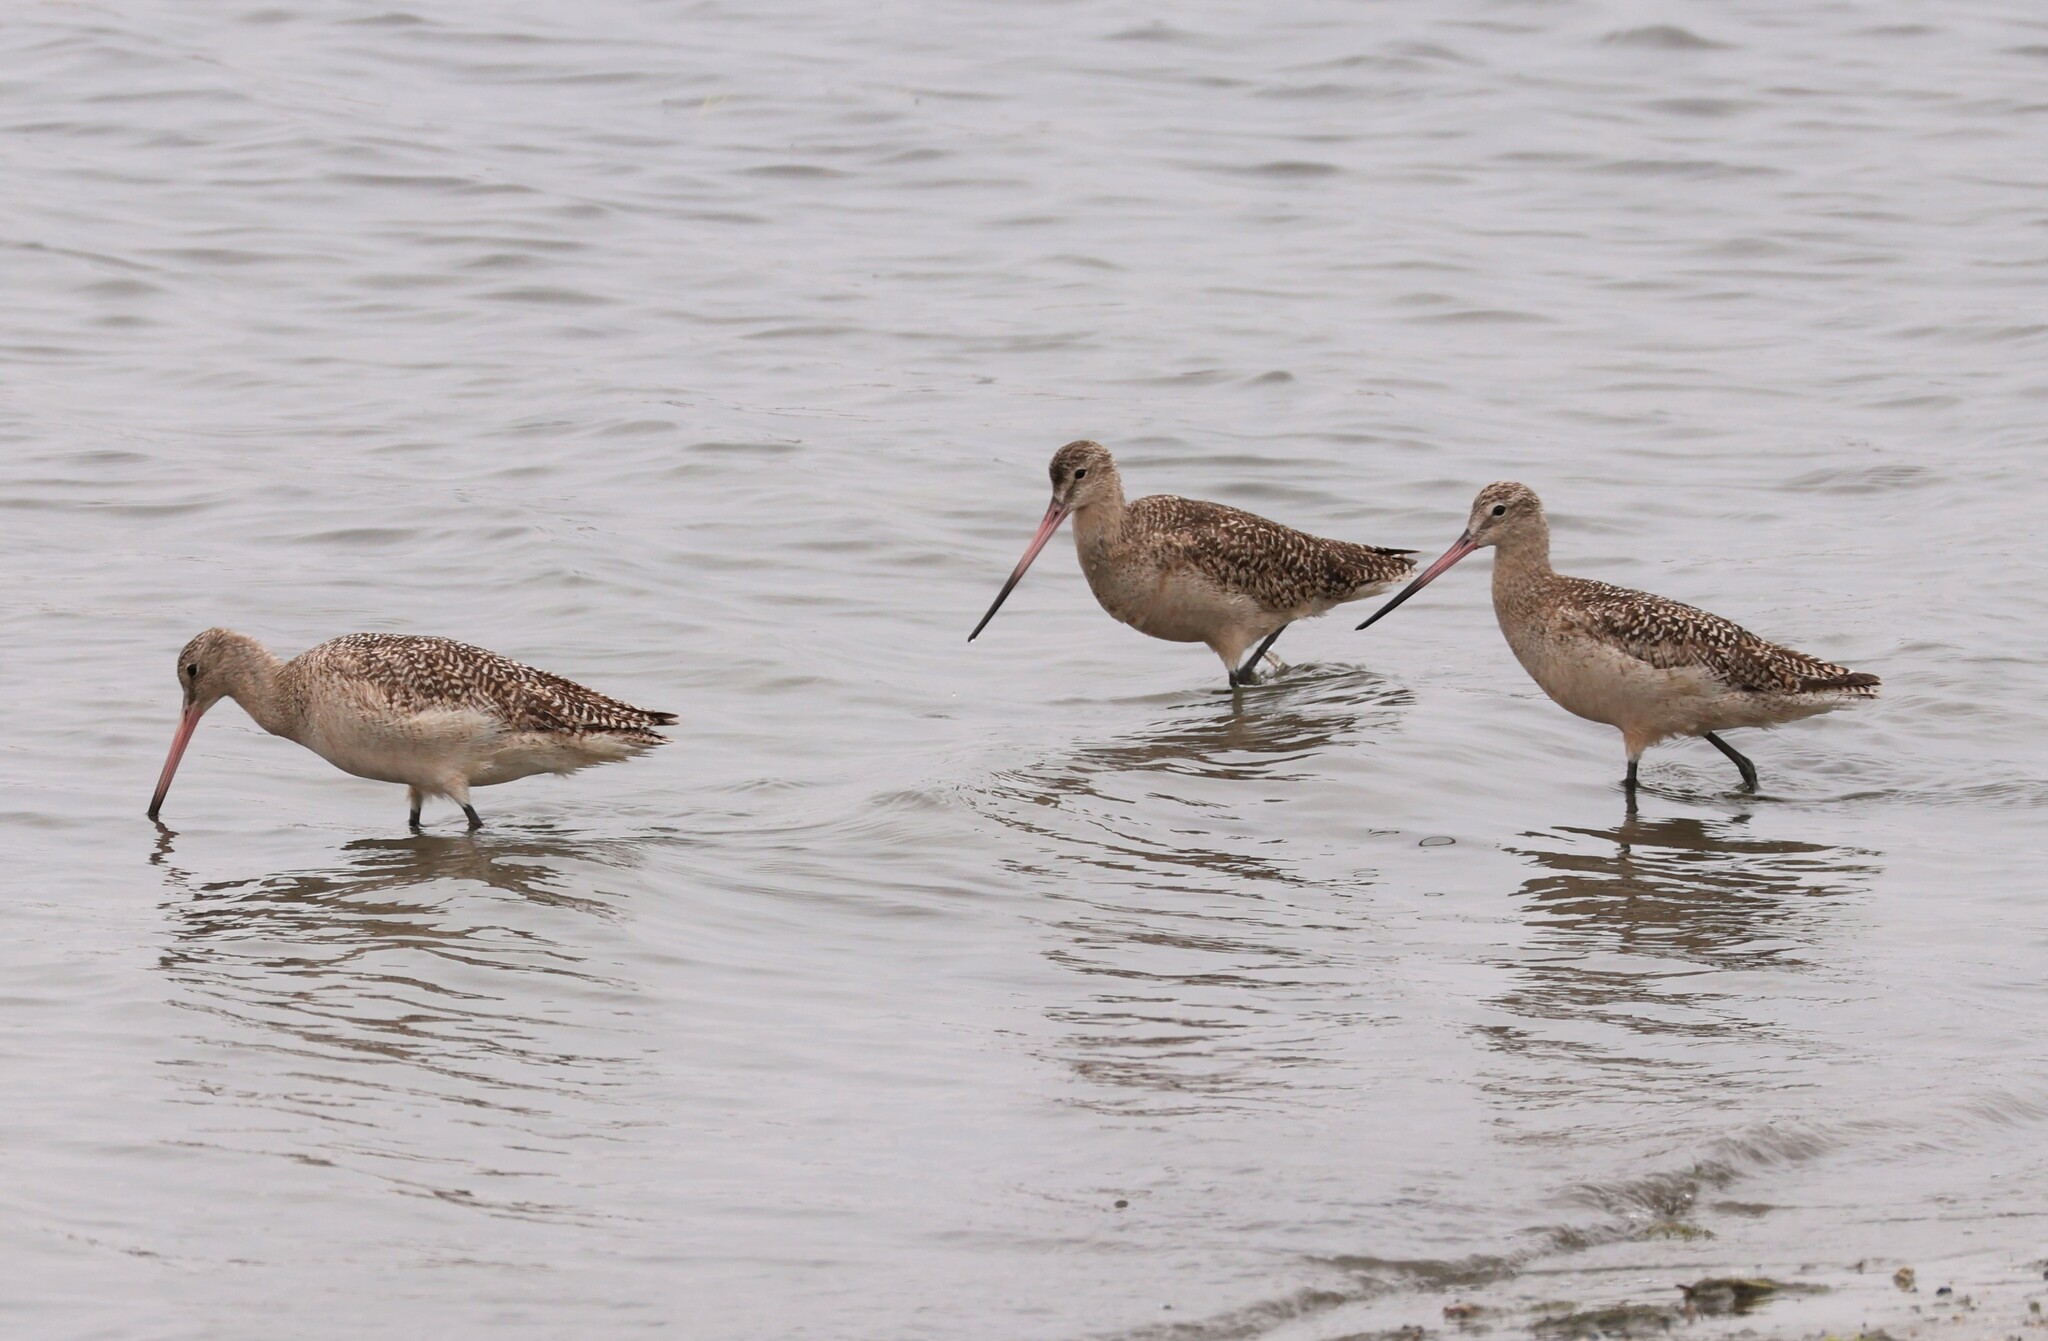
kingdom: Animalia
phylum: Chordata
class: Aves
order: Charadriiformes
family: Scolopacidae
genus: Limosa
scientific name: Limosa fedoa
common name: Marbled godwit
